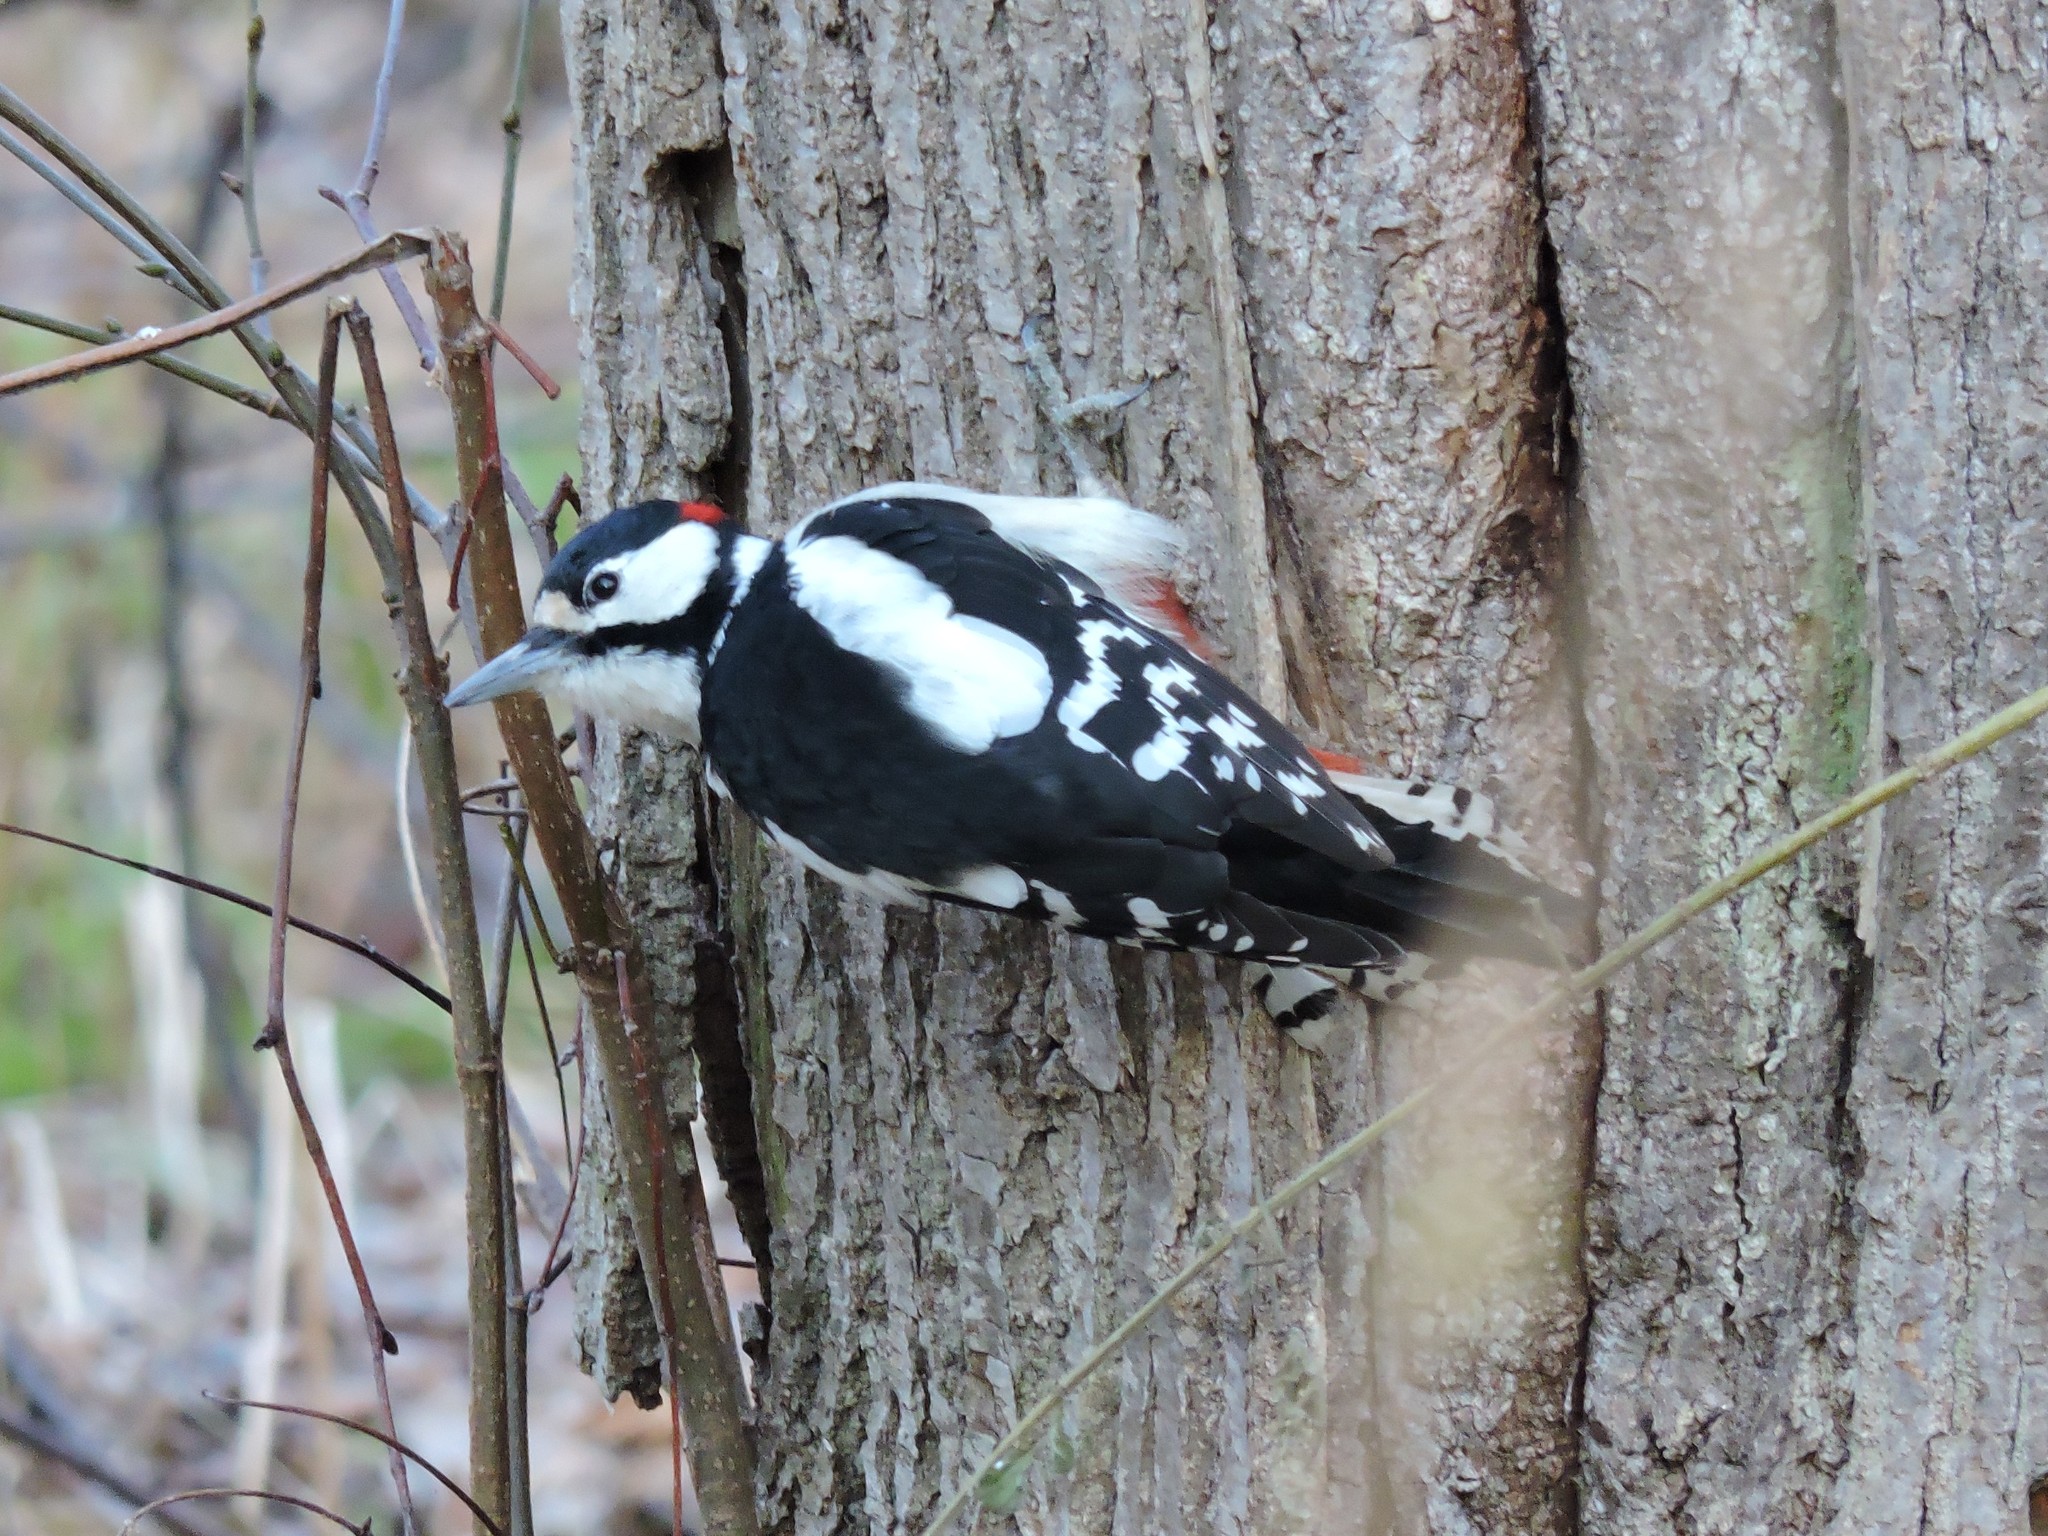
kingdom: Animalia
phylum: Chordata
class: Aves
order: Piciformes
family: Picidae
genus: Dendrocopos
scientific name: Dendrocopos major
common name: Great spotted woodpecker
